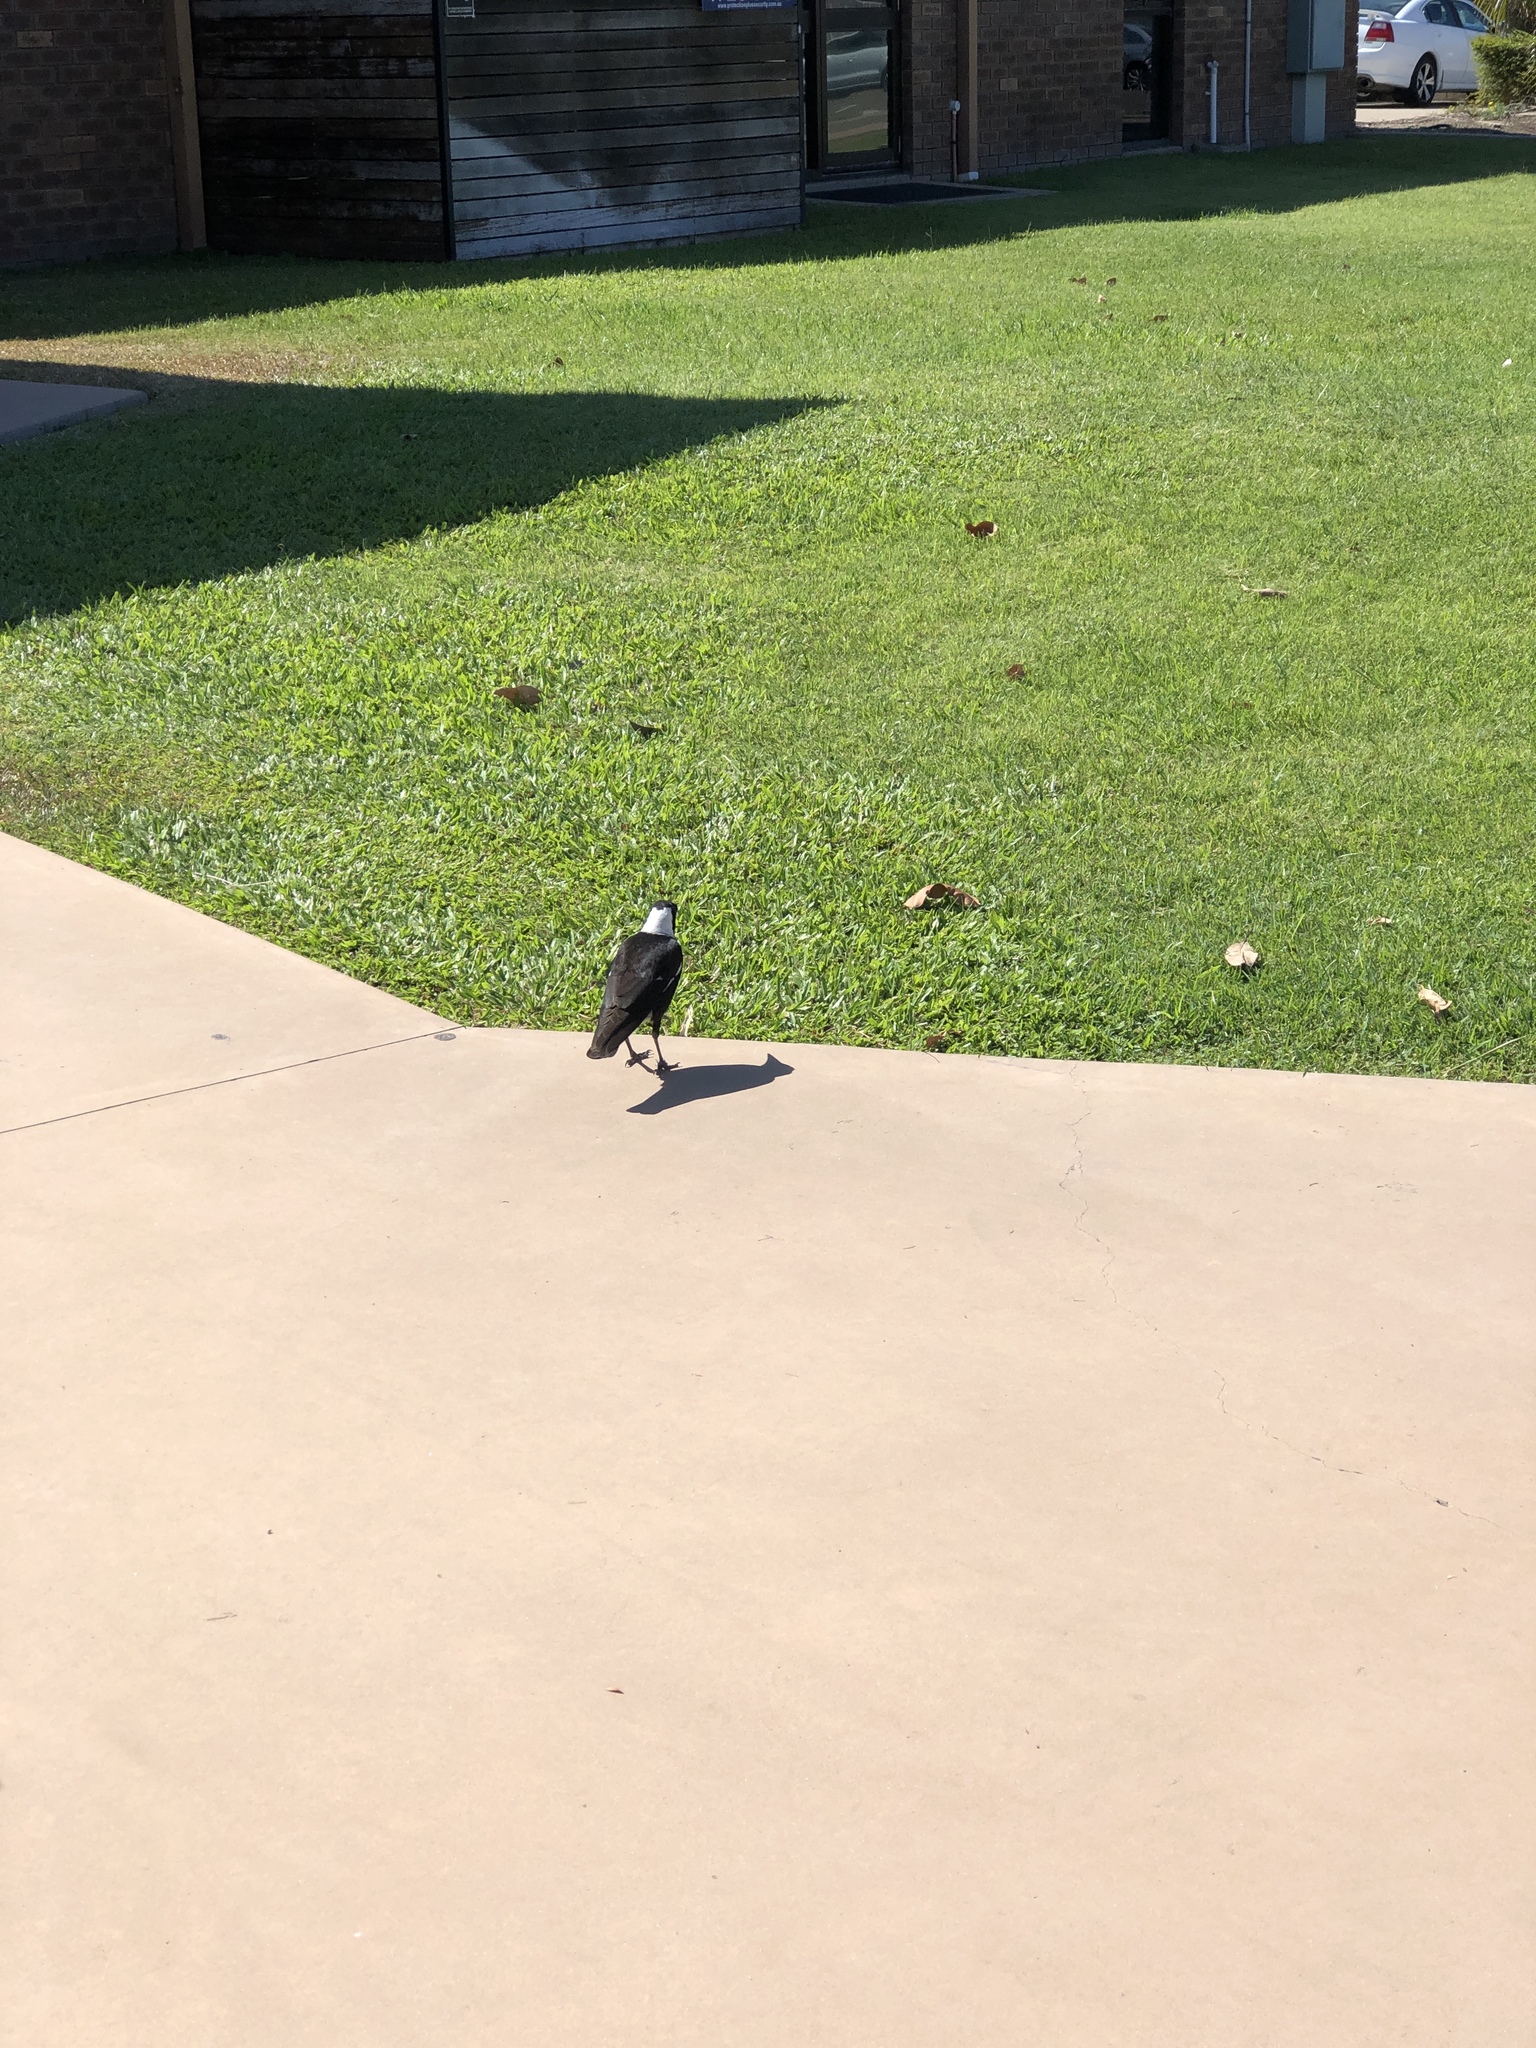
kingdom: Animalia
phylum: Chordata
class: Aves
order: Passeriformes
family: Cracticidae
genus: Gymnorhina
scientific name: Gymnorhina tibicen
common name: Australian magpie
